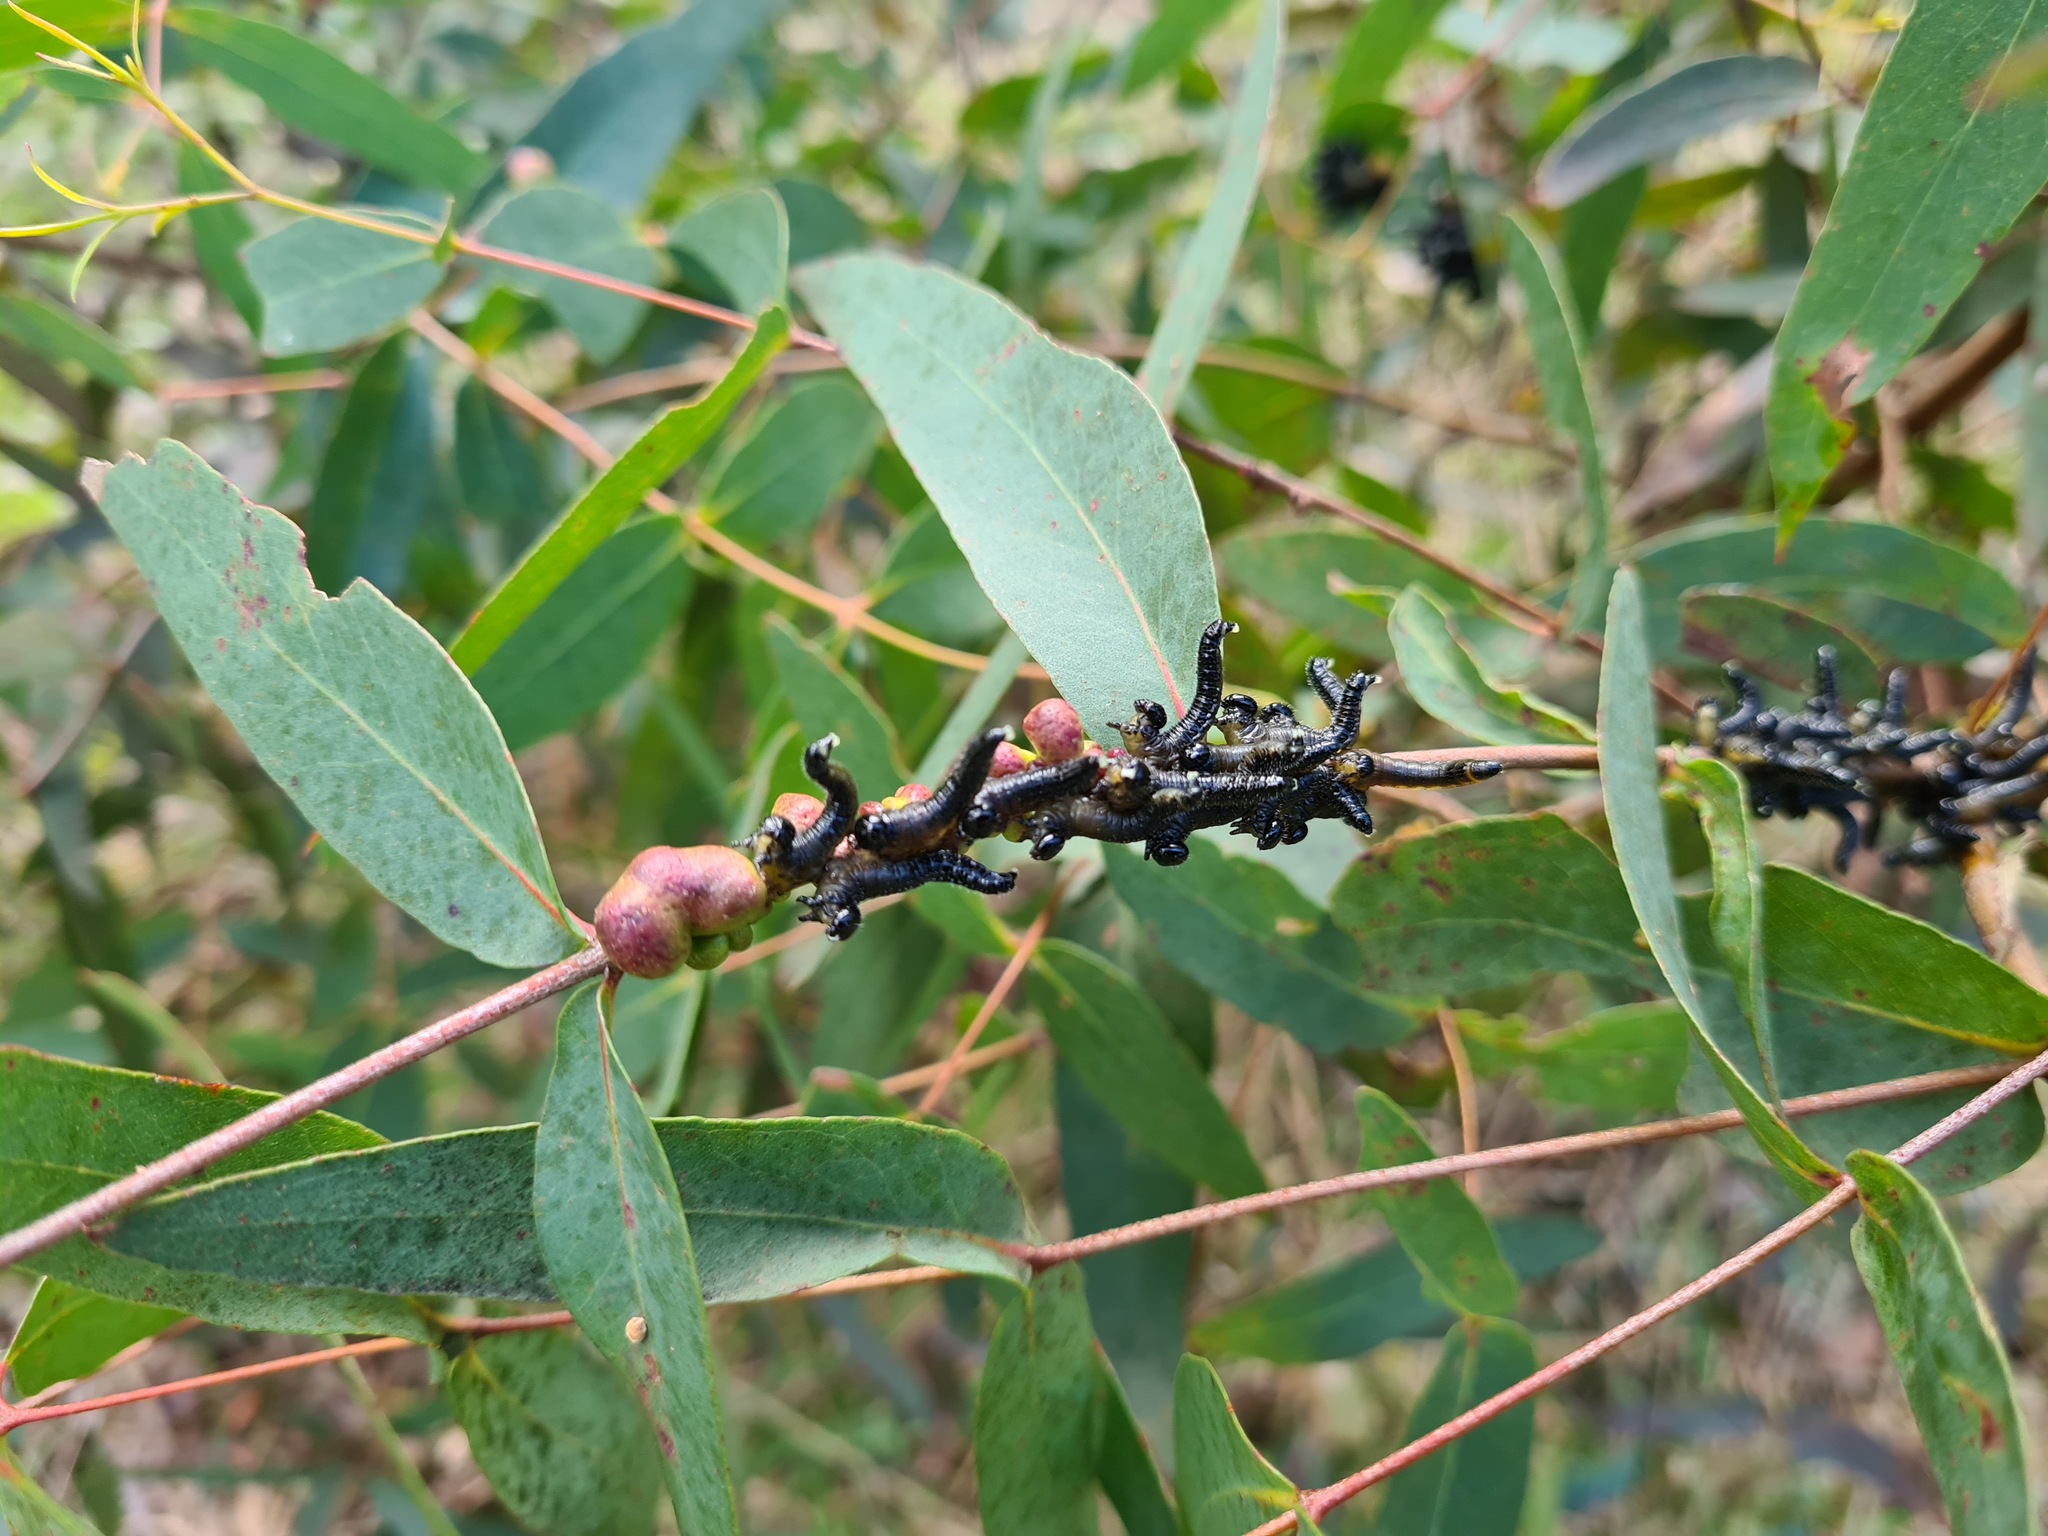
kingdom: Animalia
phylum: Arthropoda
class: Insecta
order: Hymenoptera
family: Pergidae
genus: Perga
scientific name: Perga affinis
